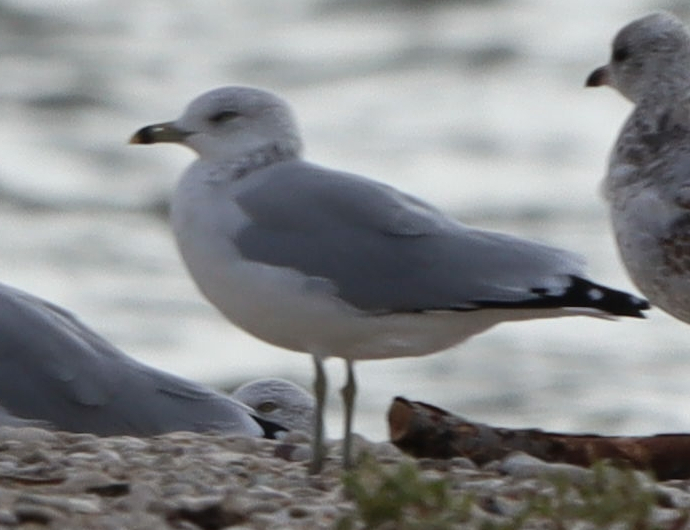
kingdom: Animalia
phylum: Chordata
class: Aves
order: Charadriiformes
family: Laridae
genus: Larus
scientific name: Larus delawarensis
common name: Ring-billed gull
